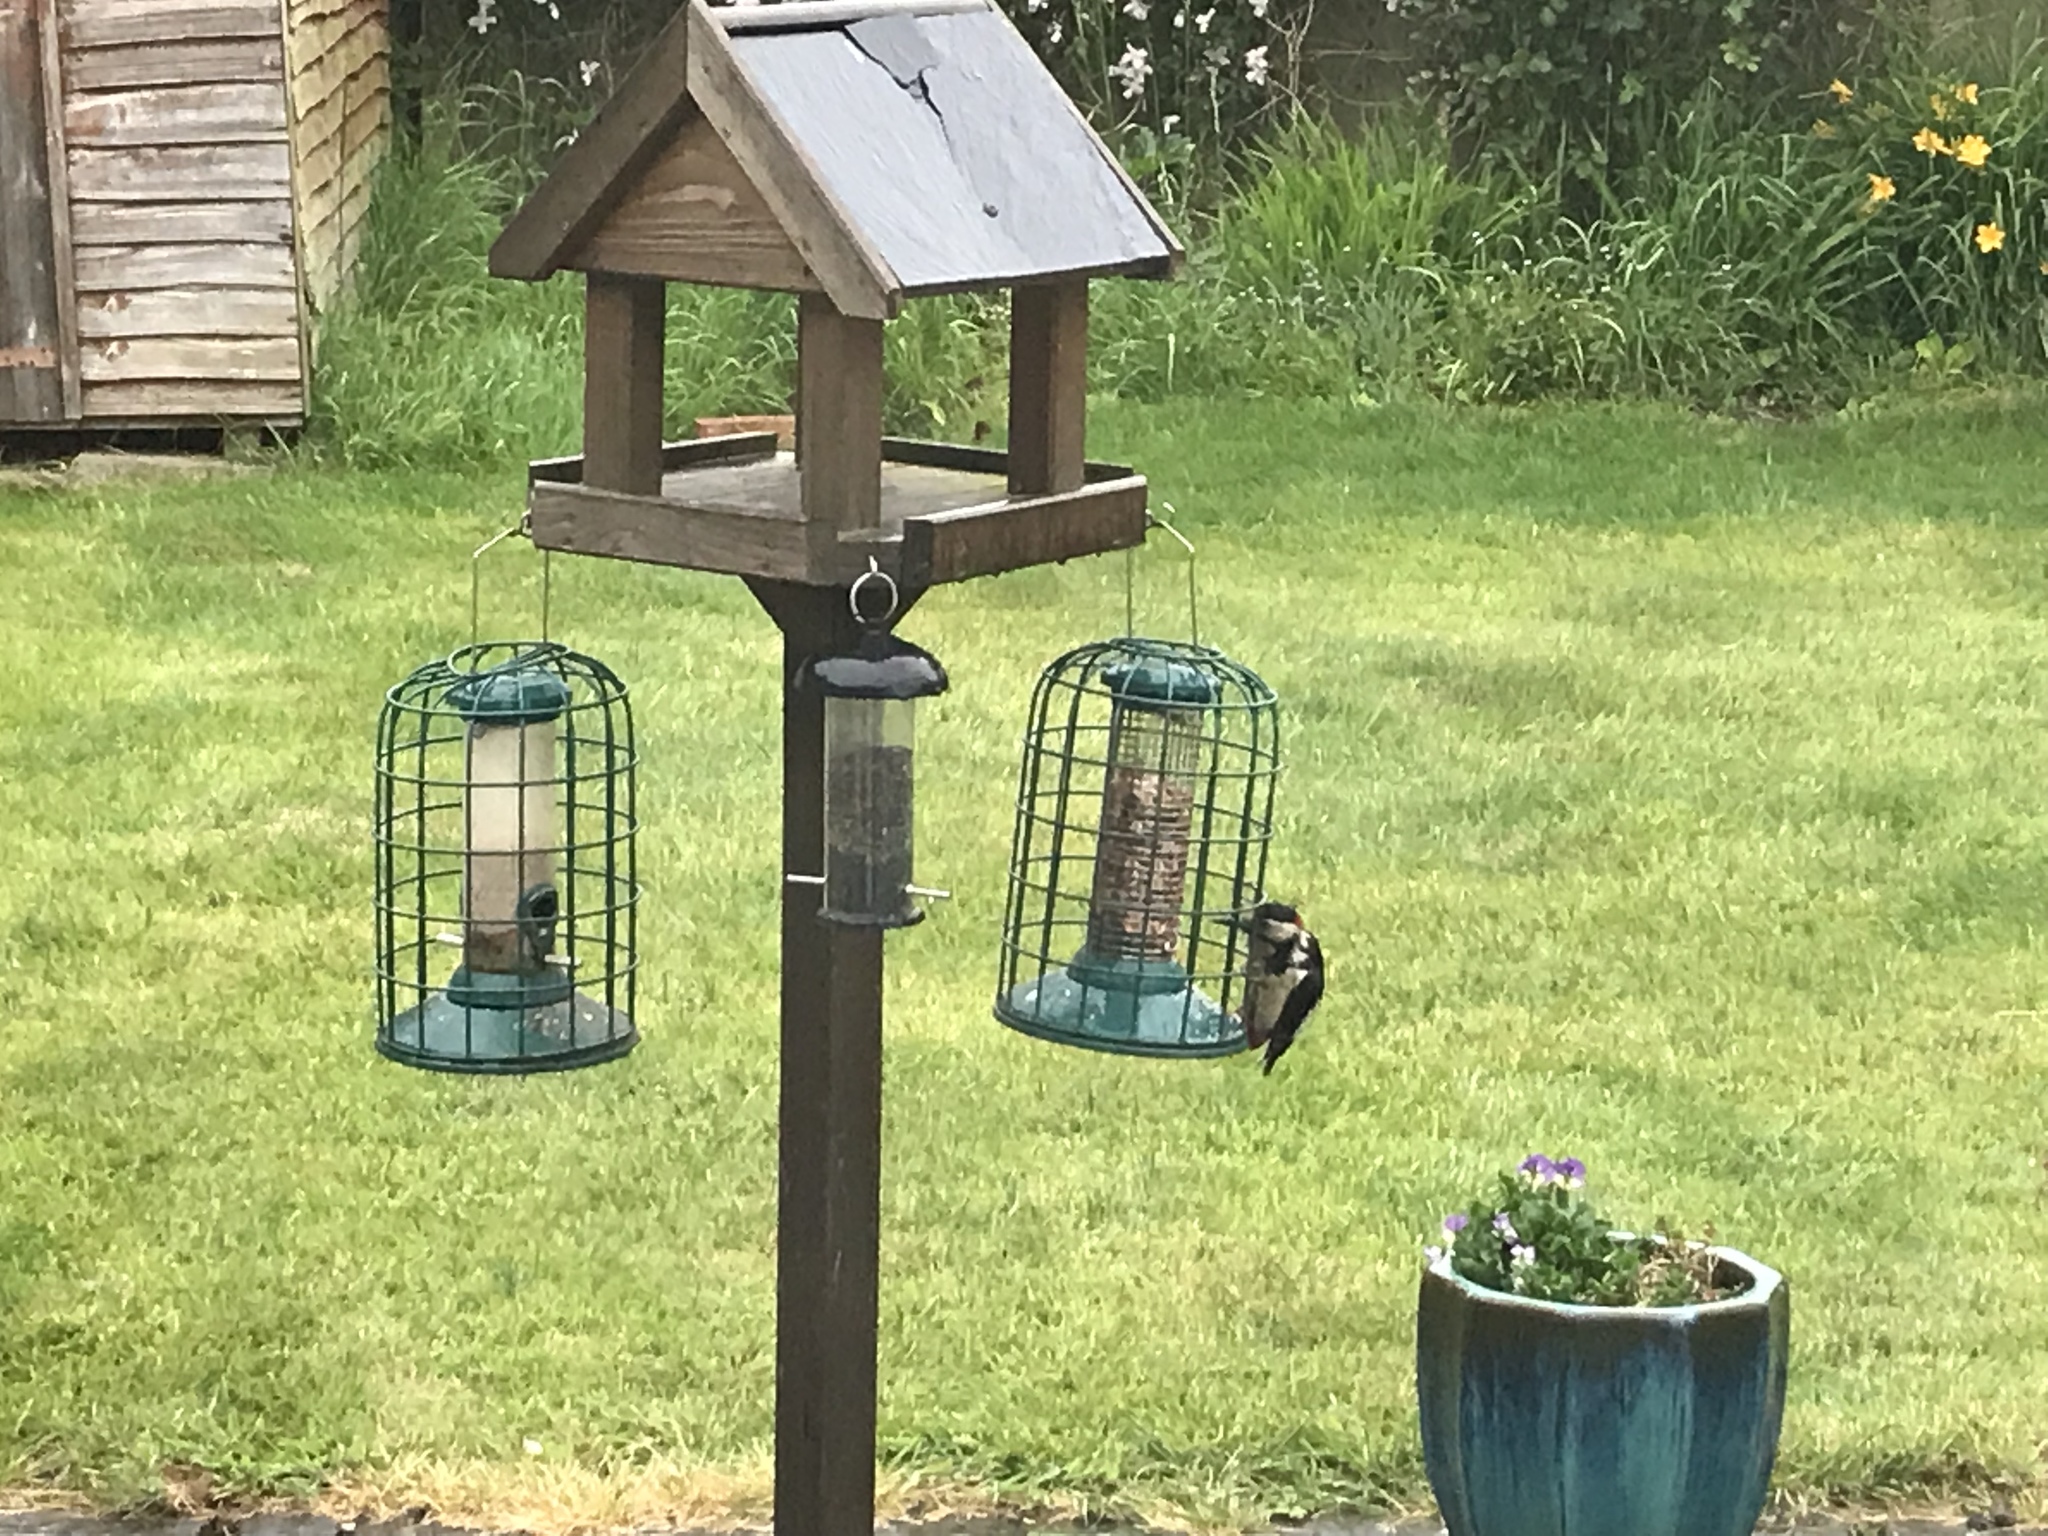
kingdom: Animalia
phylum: Chordata
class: Aves
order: Piciformes
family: Picidae
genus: Dendrocopos
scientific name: Dendrocopos major
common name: Great spotted woodpecker
